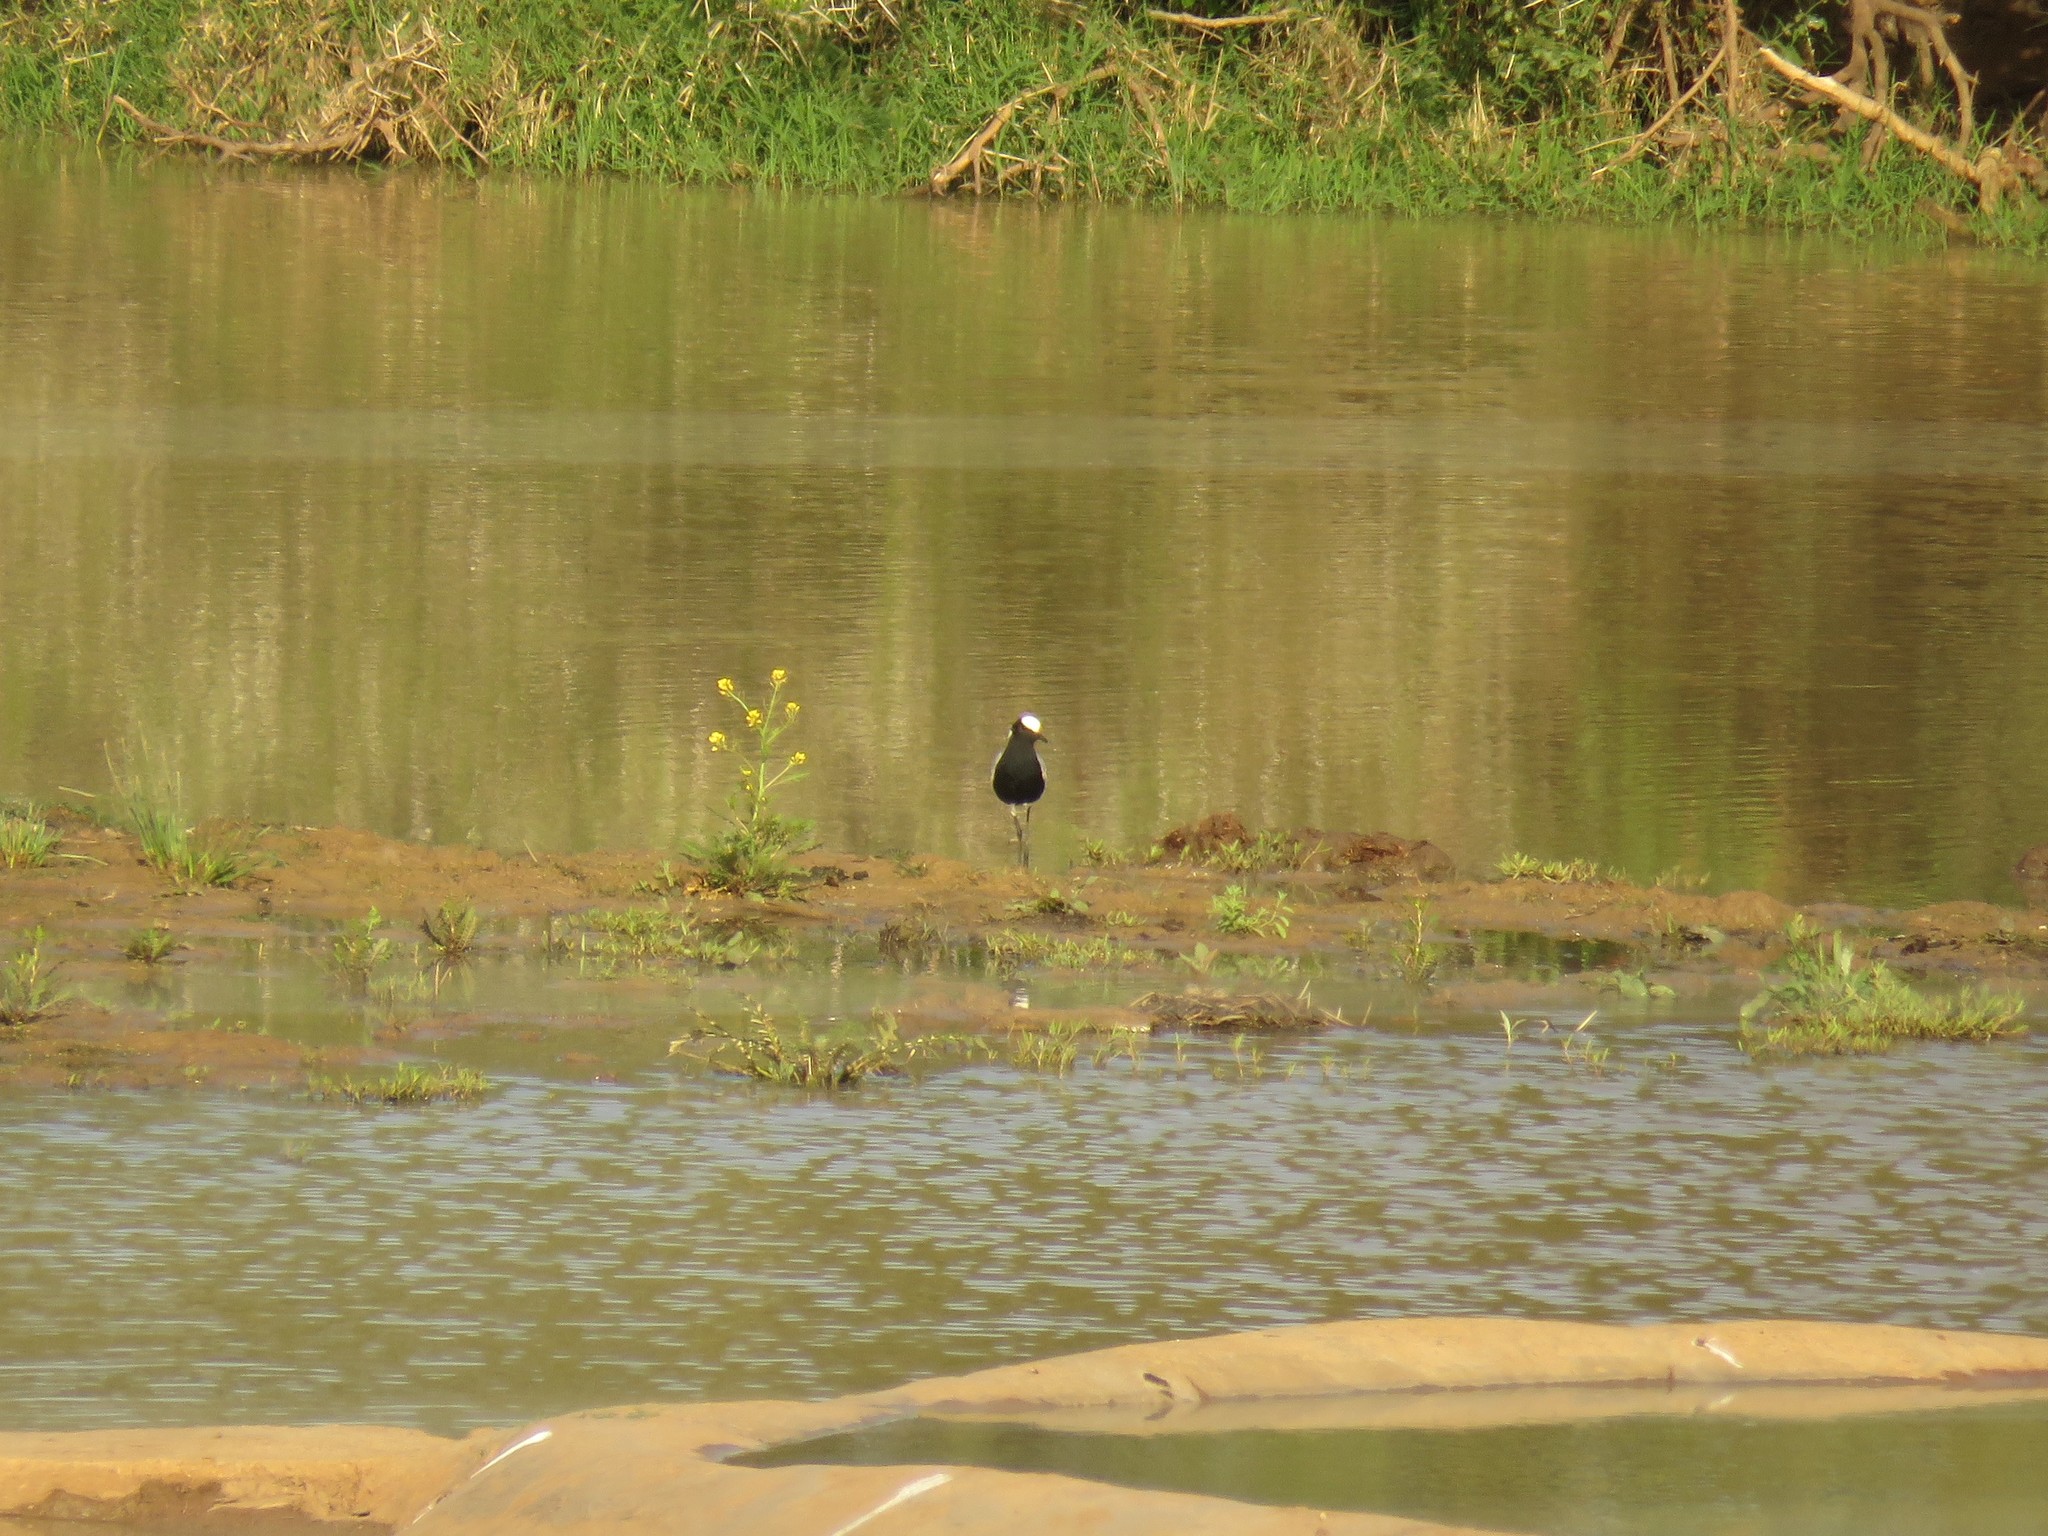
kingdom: Animalia
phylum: Chordata
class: Aves
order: Charadriiformes
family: Charadriidae
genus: Vanellus
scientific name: Vanellus armatus
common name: Blacksmith lapwing
